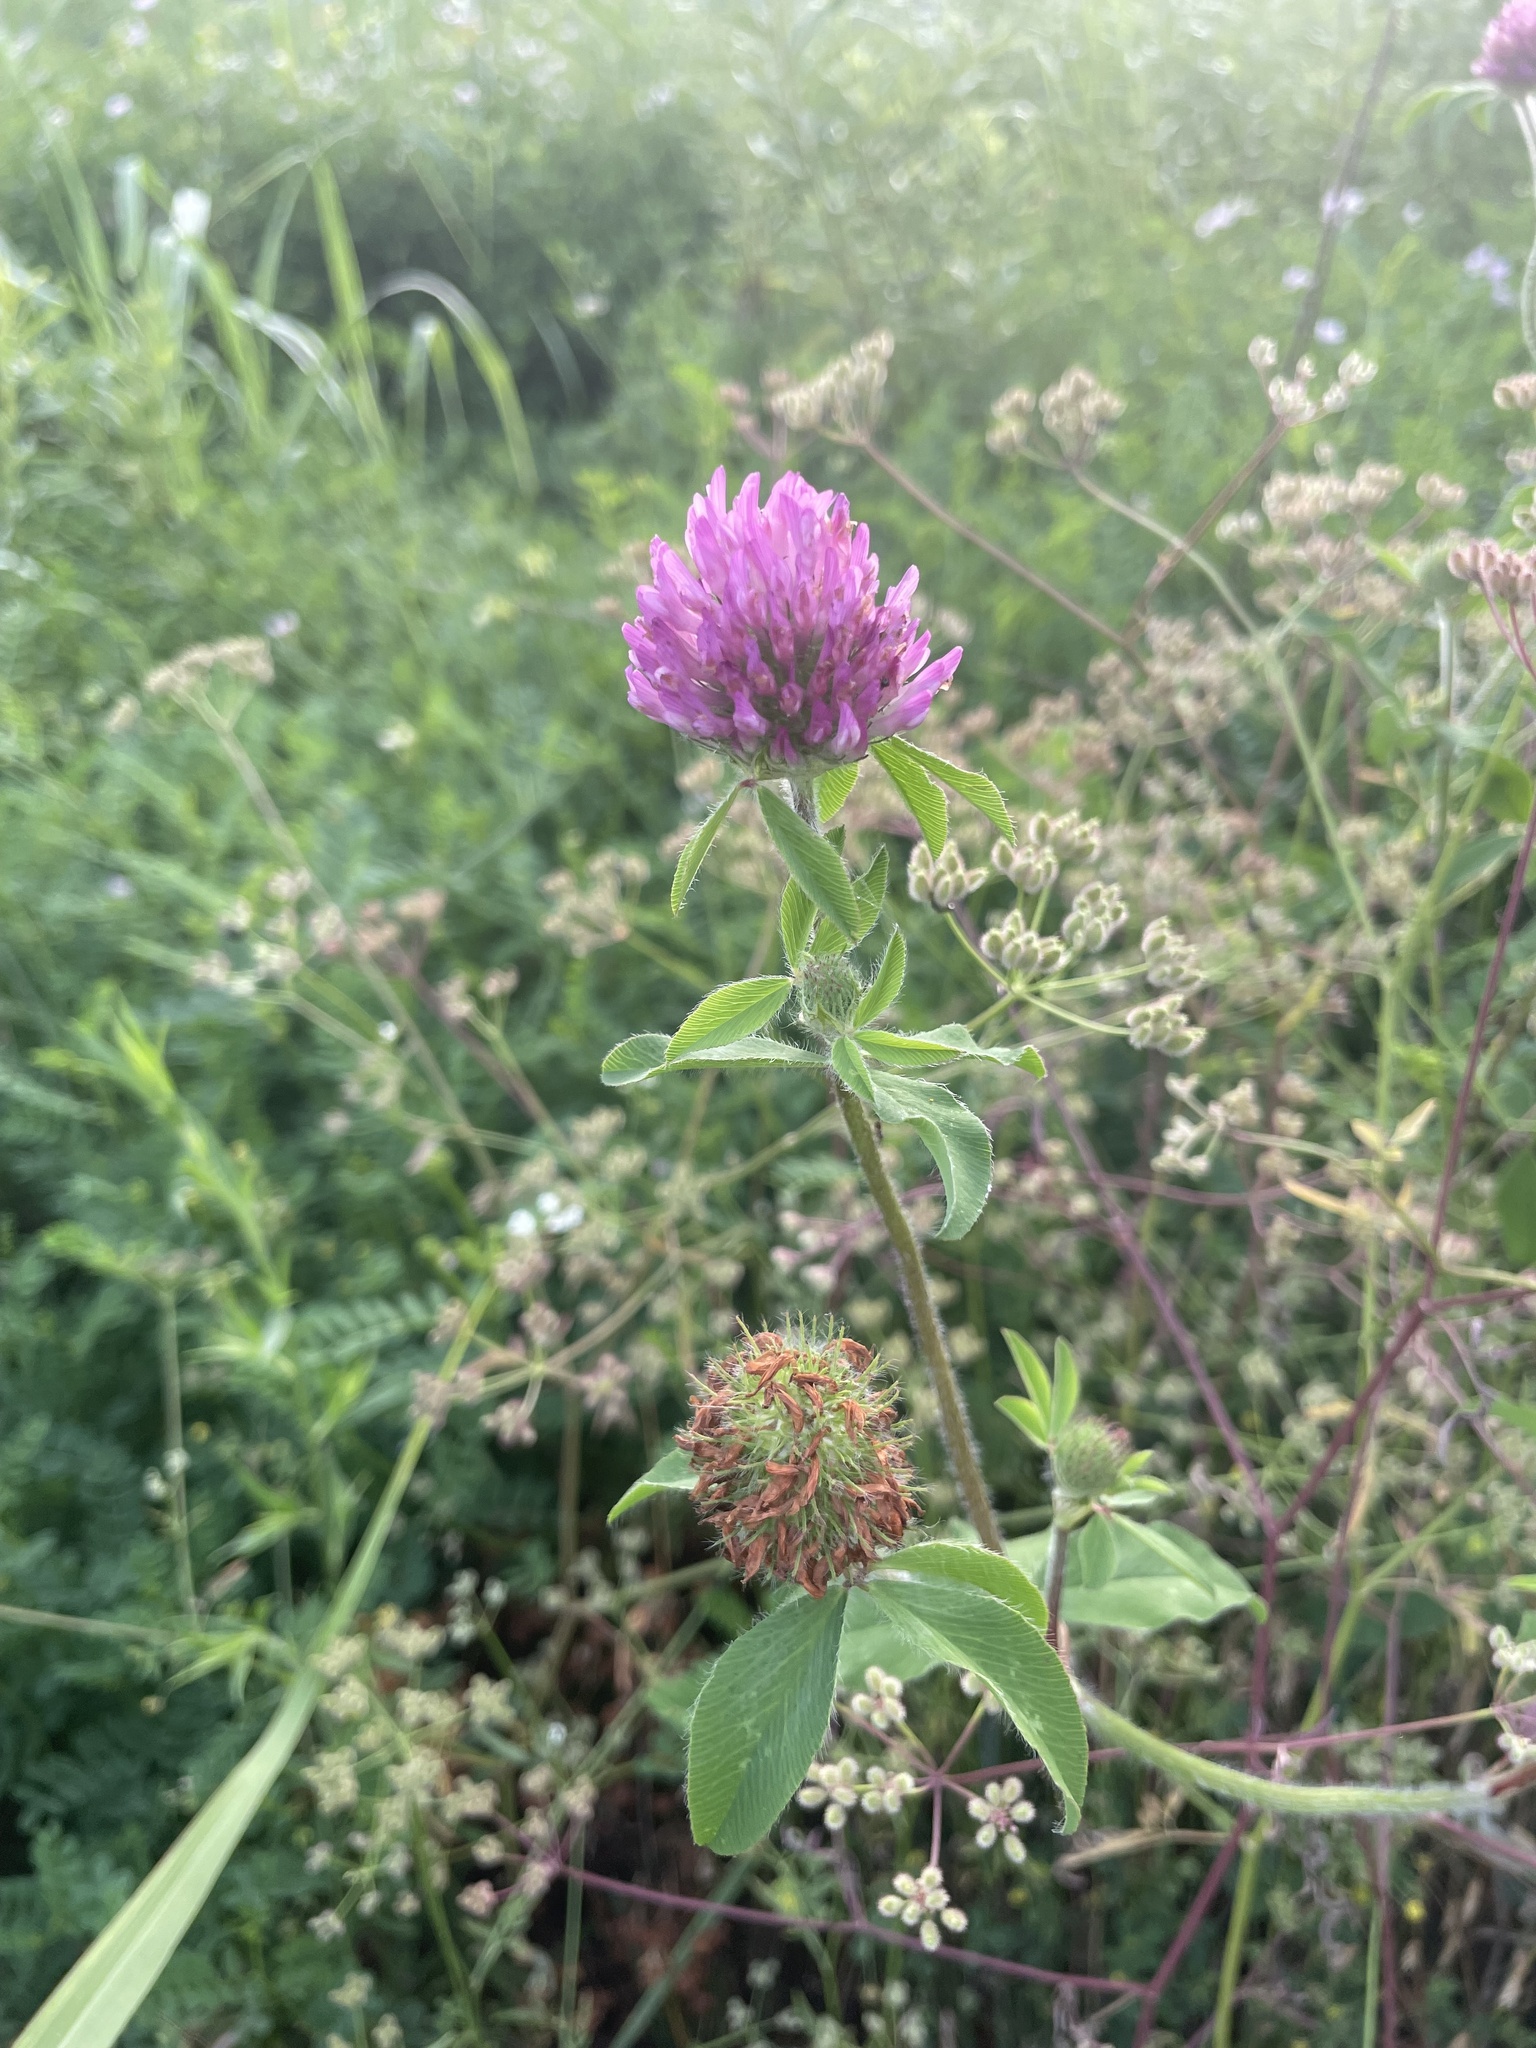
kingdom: Plantae
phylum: Tracheophyta
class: Magnoliopsida
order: Fabales
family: Fabaceae
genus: Trifolium
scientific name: Trifolium pratense
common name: Red clover
